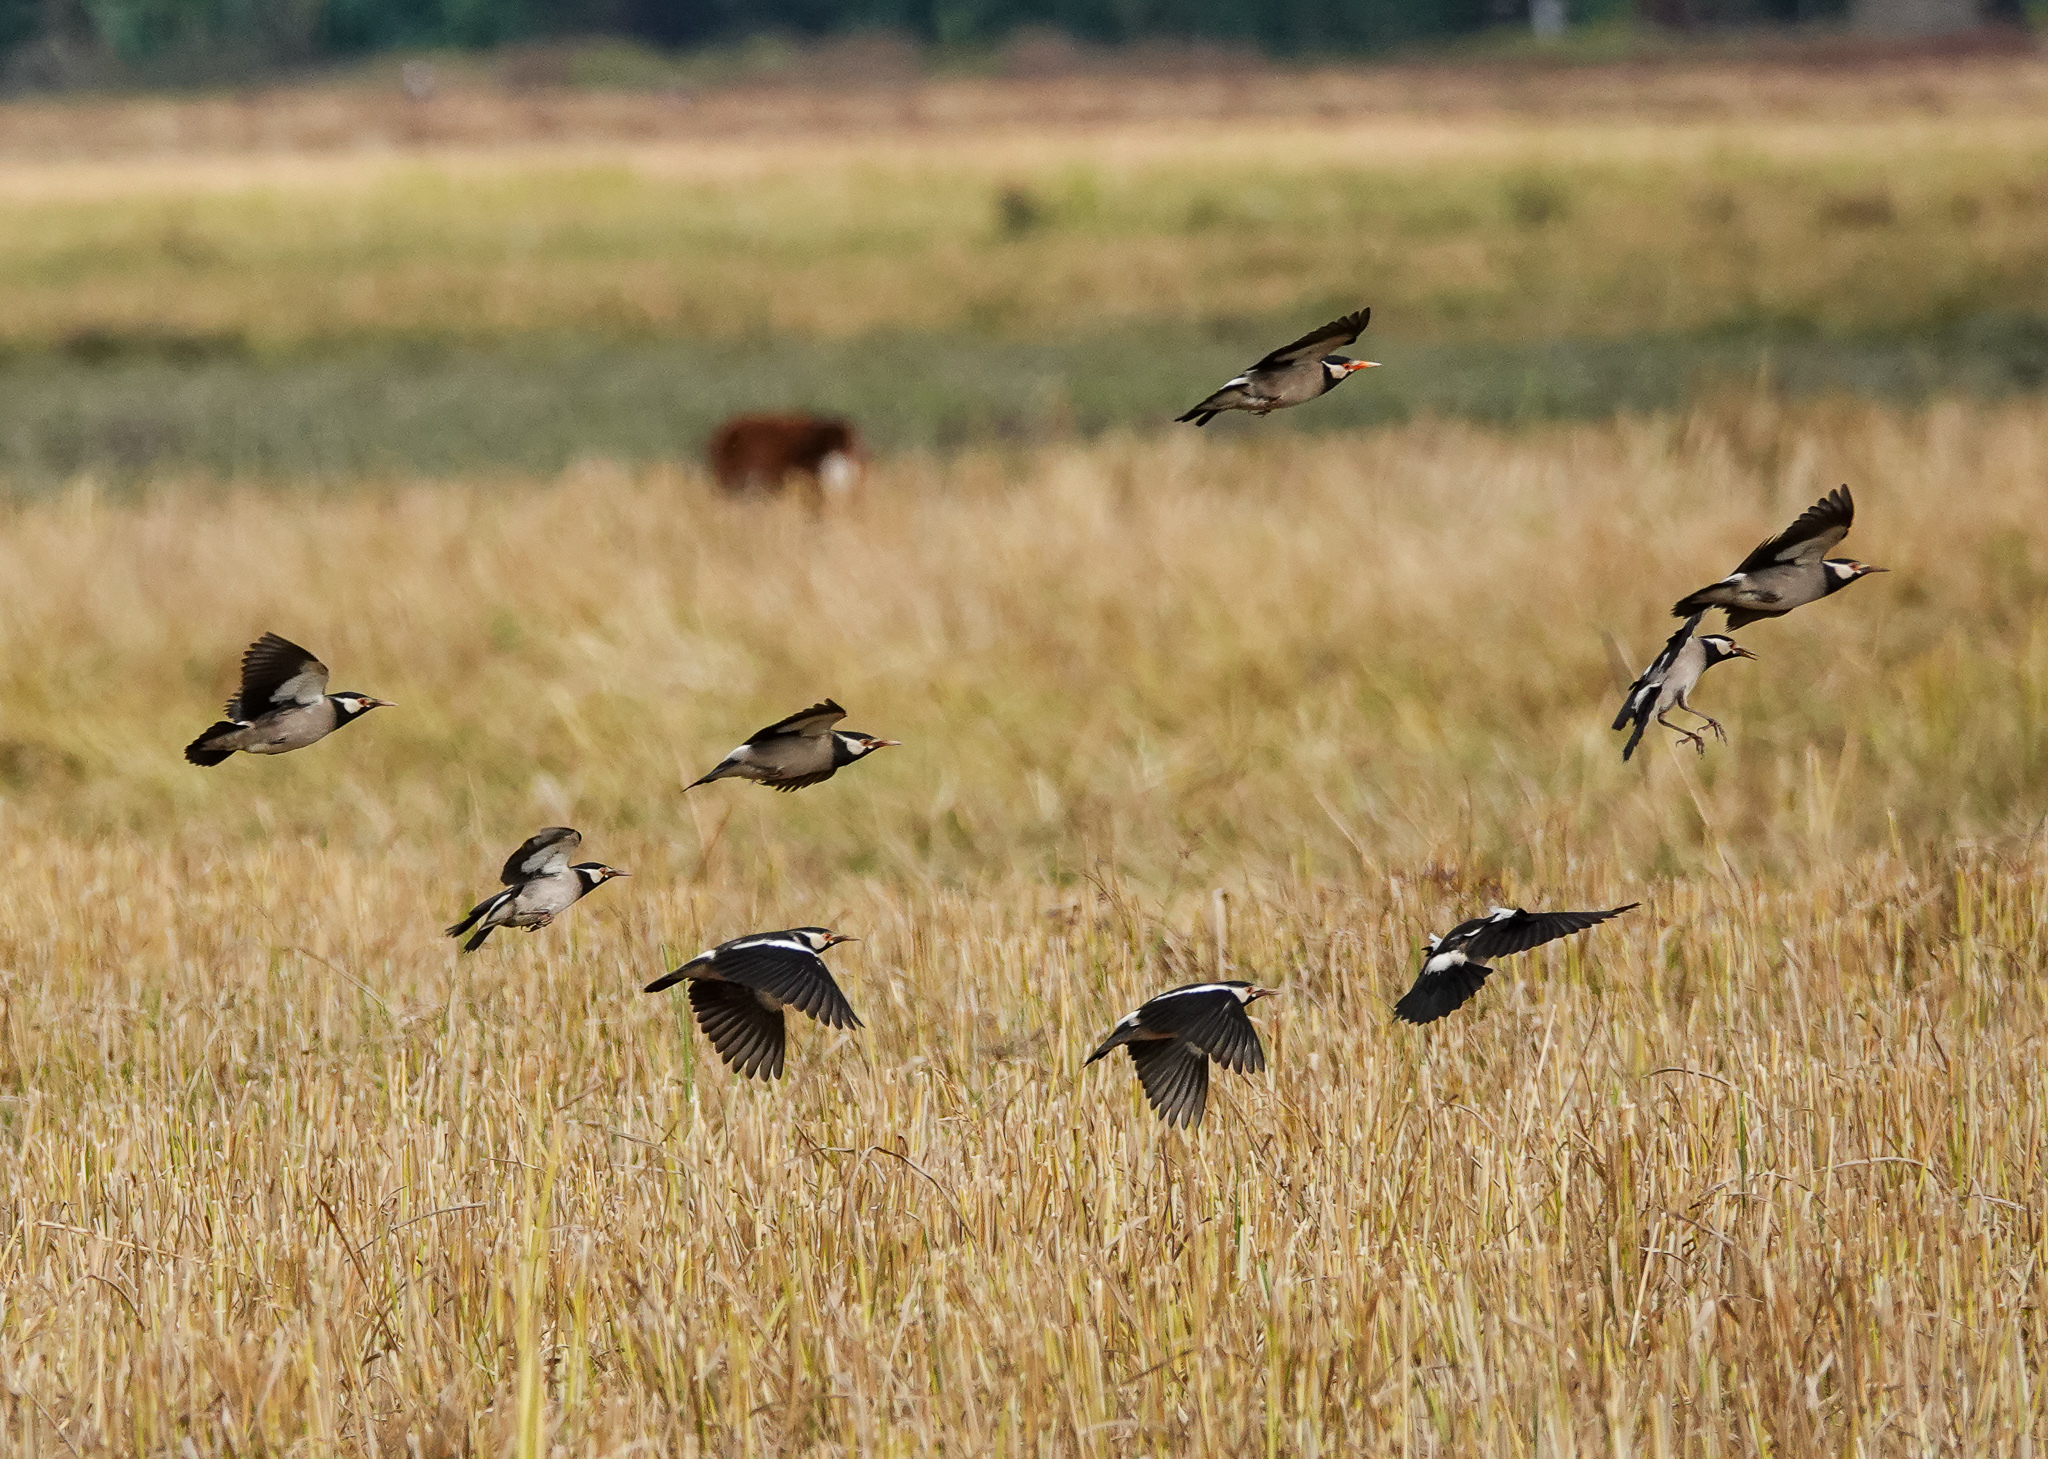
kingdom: Animalia
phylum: Chordata
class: Aves
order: Passeriformes
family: Sturnidae
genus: Gracupica
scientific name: Gracupica contra
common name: Pied myna
